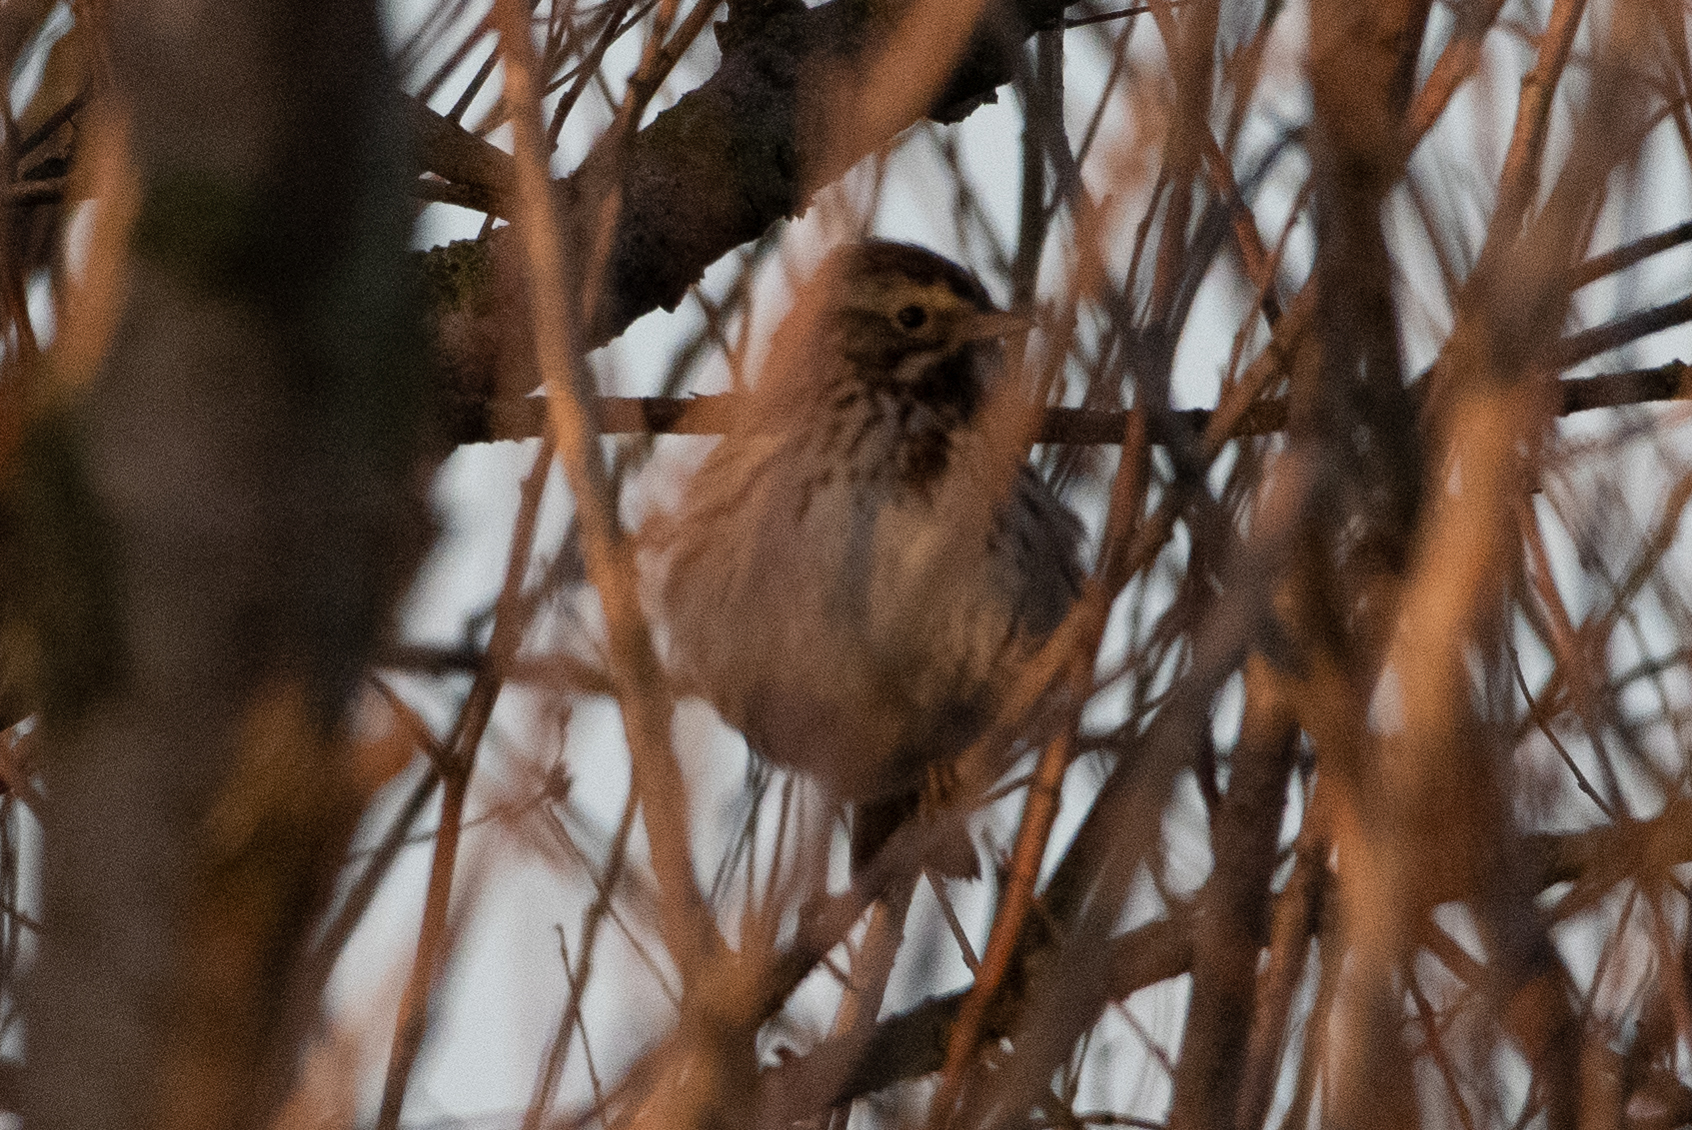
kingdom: Animalia
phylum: Chordata
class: Aves
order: Passeriformes
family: Passerellidae
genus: Passerculus
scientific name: Passerculus sandwichensis
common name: Savannah sparrow
